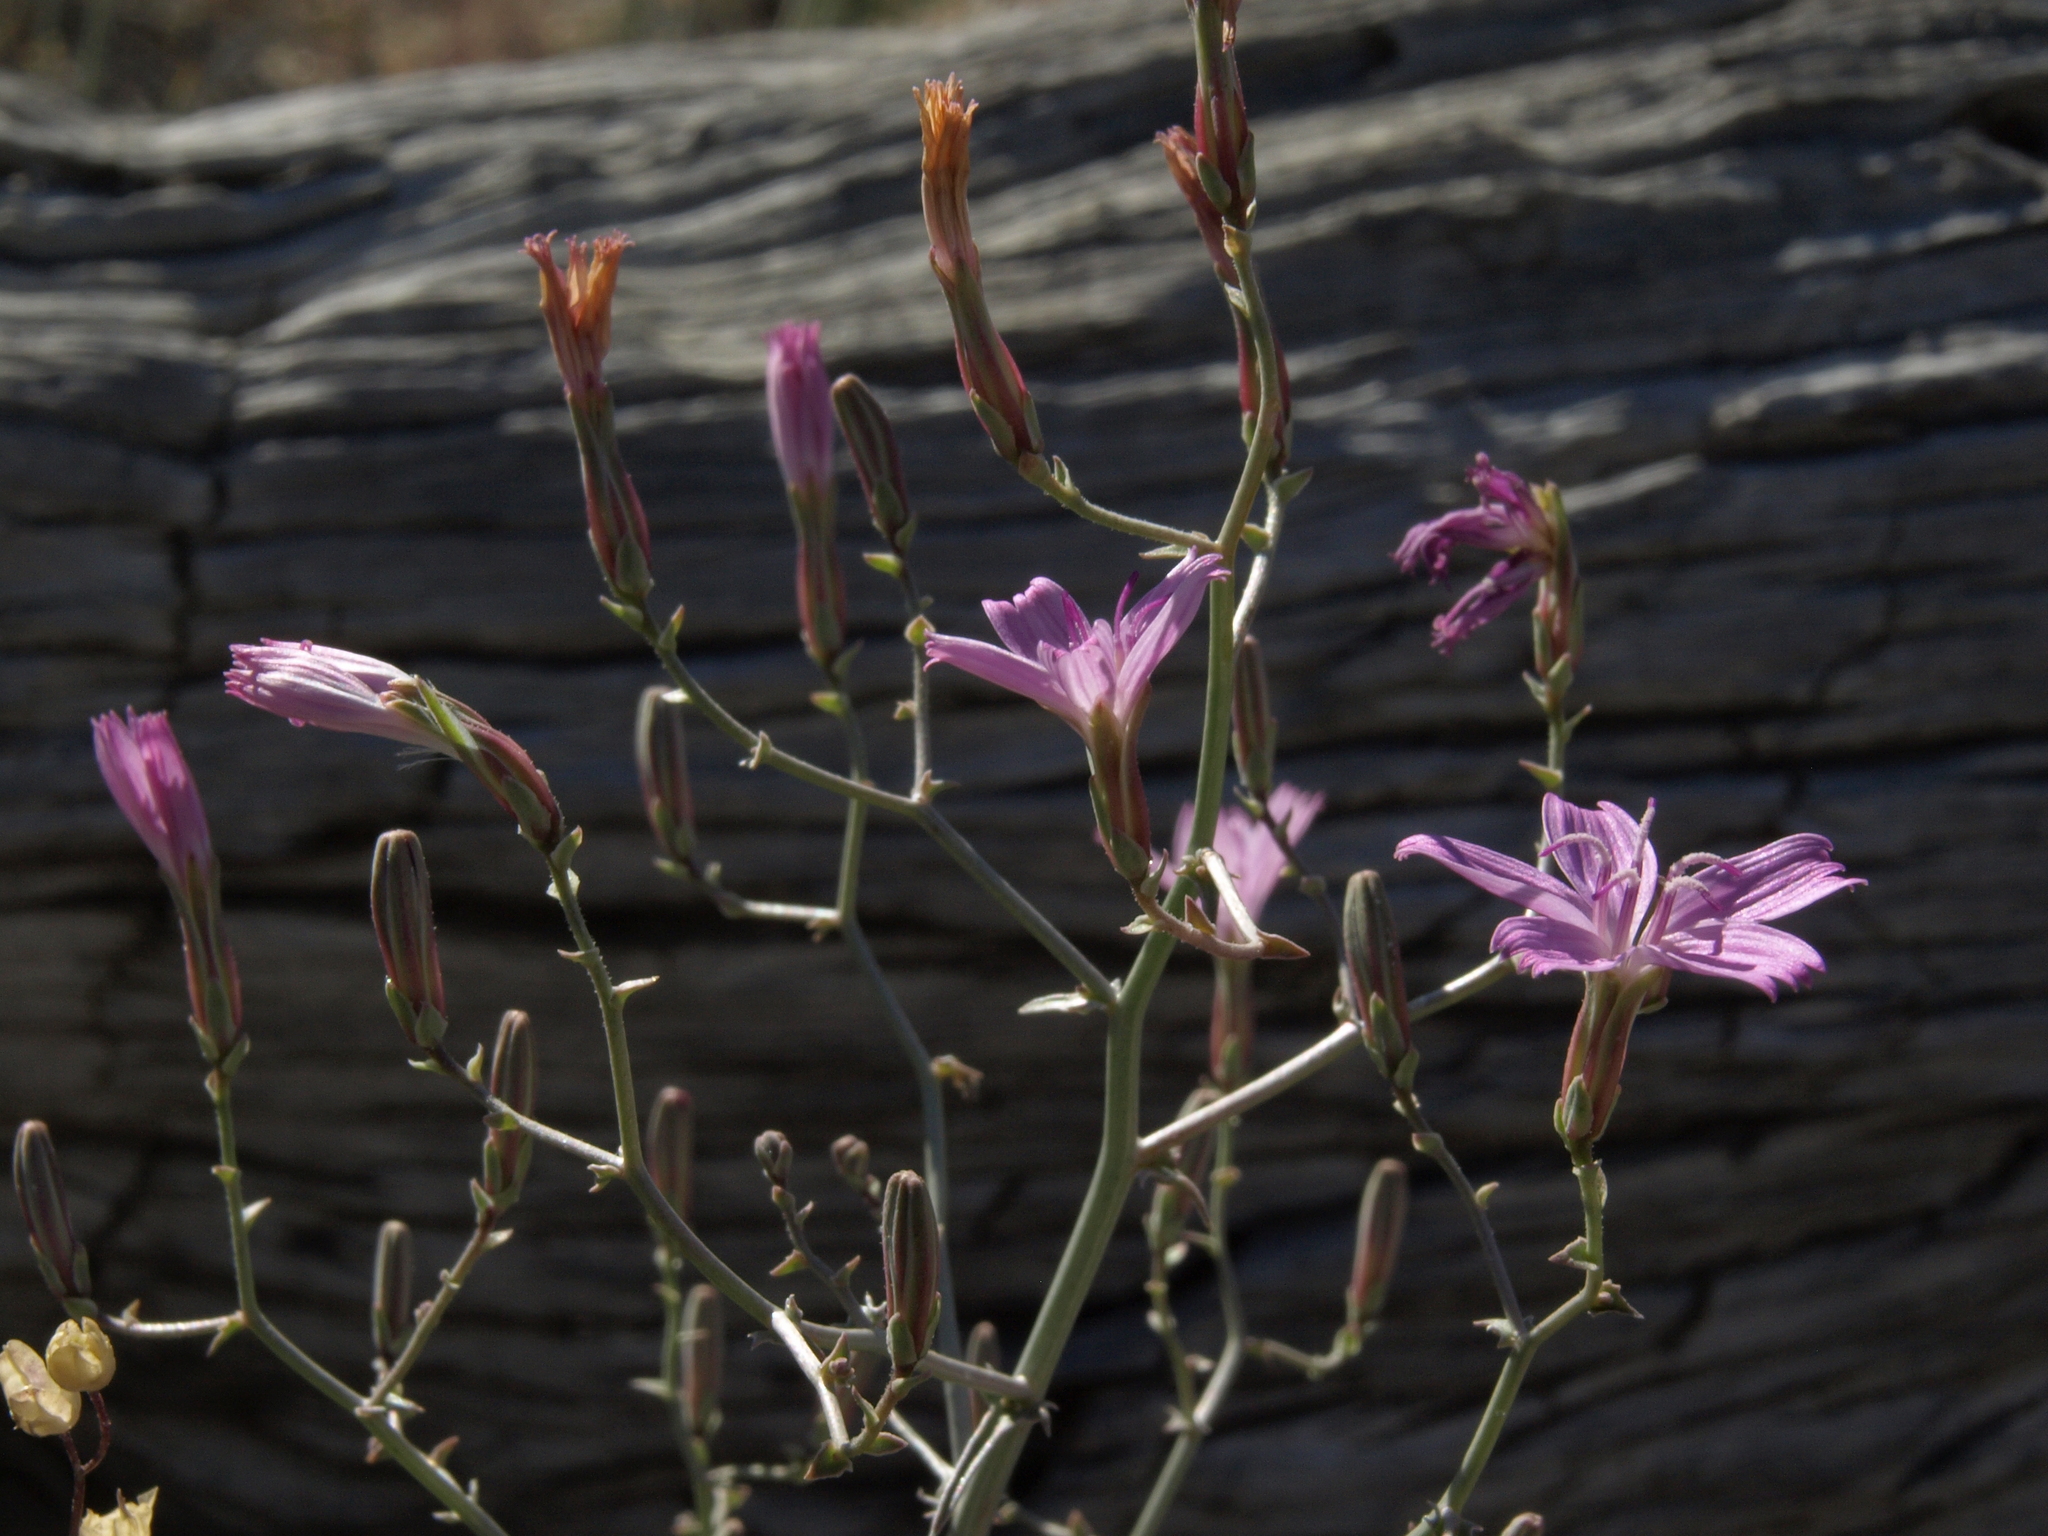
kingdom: Plantae
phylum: Tracheophyta
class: Magnoliopsida
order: Asterales
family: Asteraceae
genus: Stephanomeria
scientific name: Stephanomeria exigua
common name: Small wirelettuce
